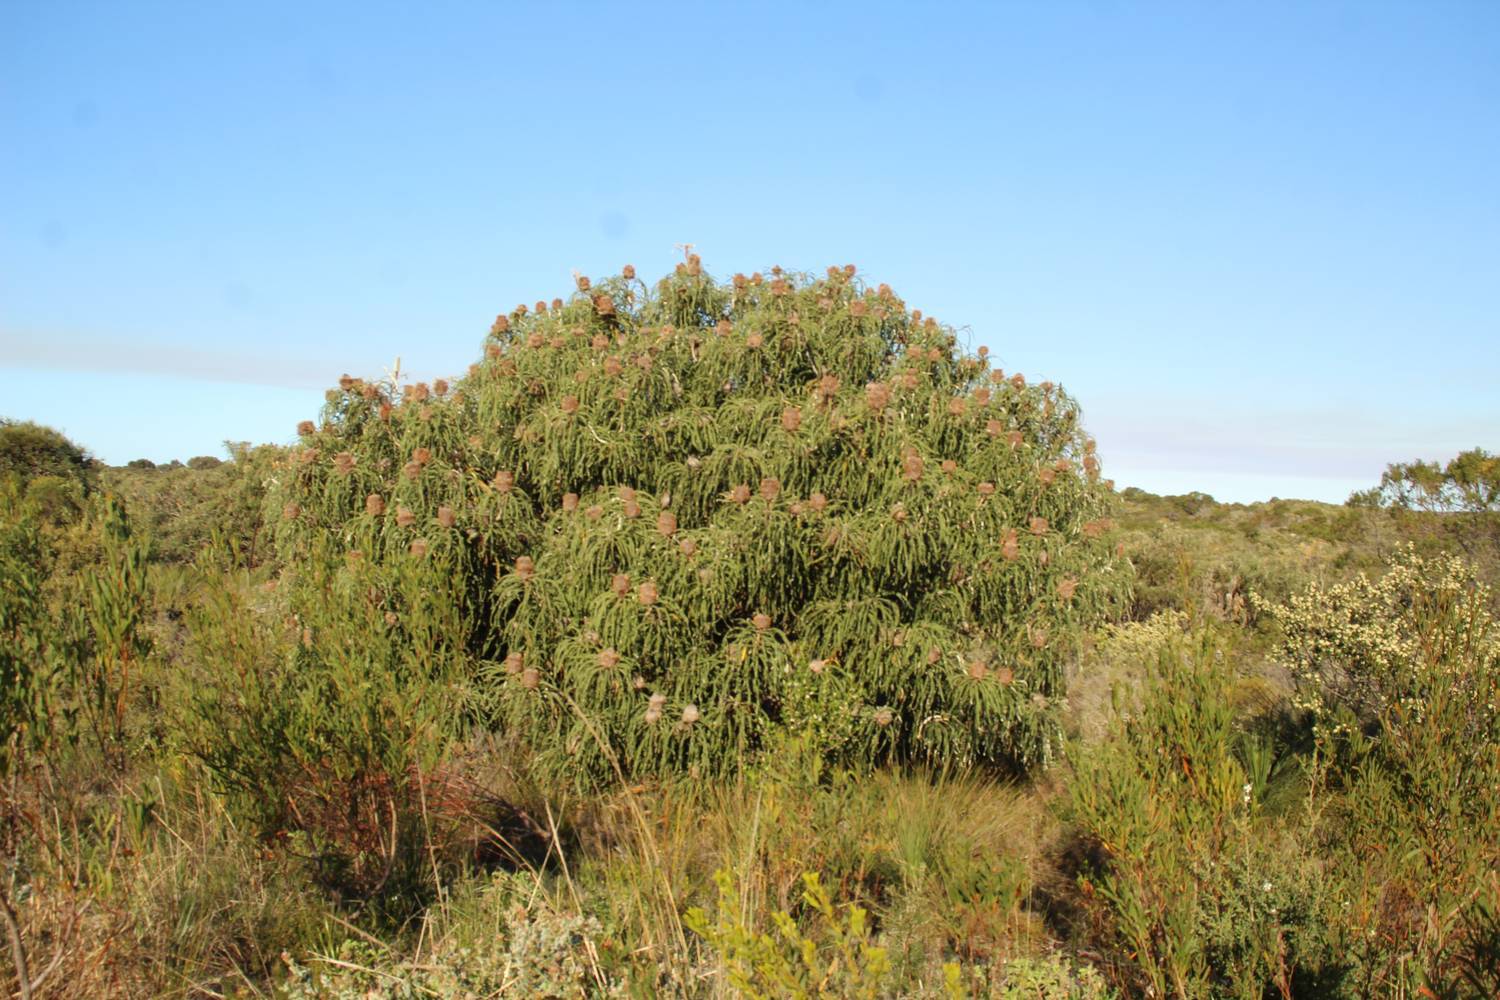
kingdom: Plantae
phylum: Tracheophyta
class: Magnoliopsida
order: Proteales
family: Proteaceae
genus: Banksia
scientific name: Banksia speciosa
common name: Showy banksia
